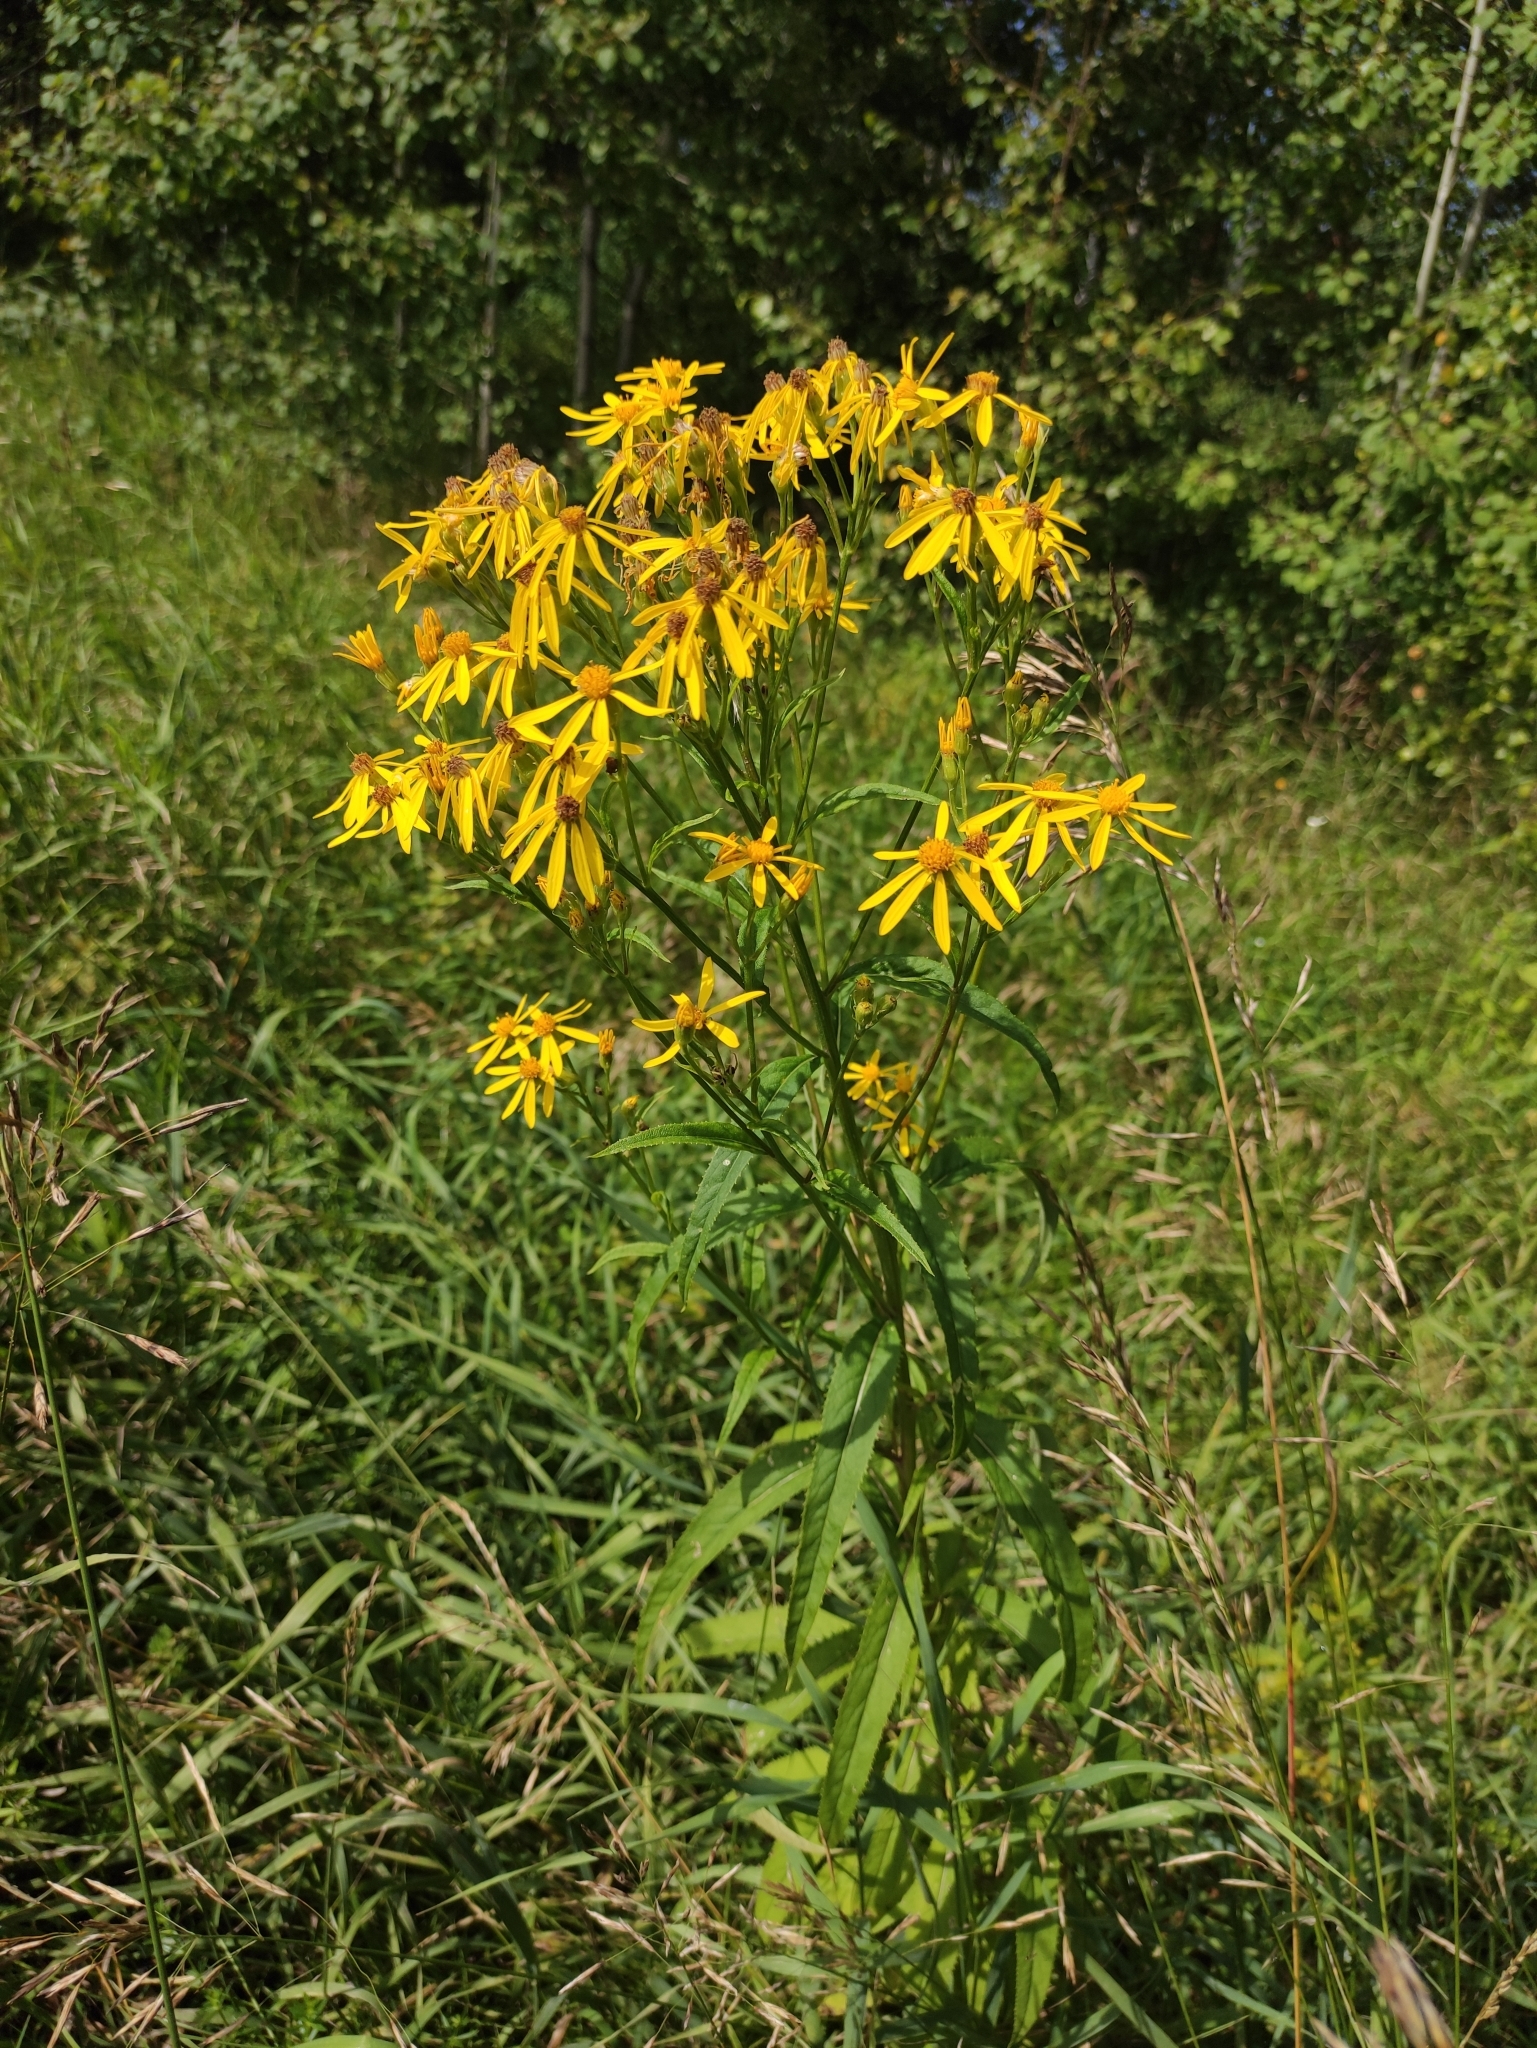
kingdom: Plantae
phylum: Tracheophyta
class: Magnoliopsida
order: Asterales
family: Asteraceae
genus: Senecio
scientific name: Senecio nemorensis
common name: Alpine ragwort
